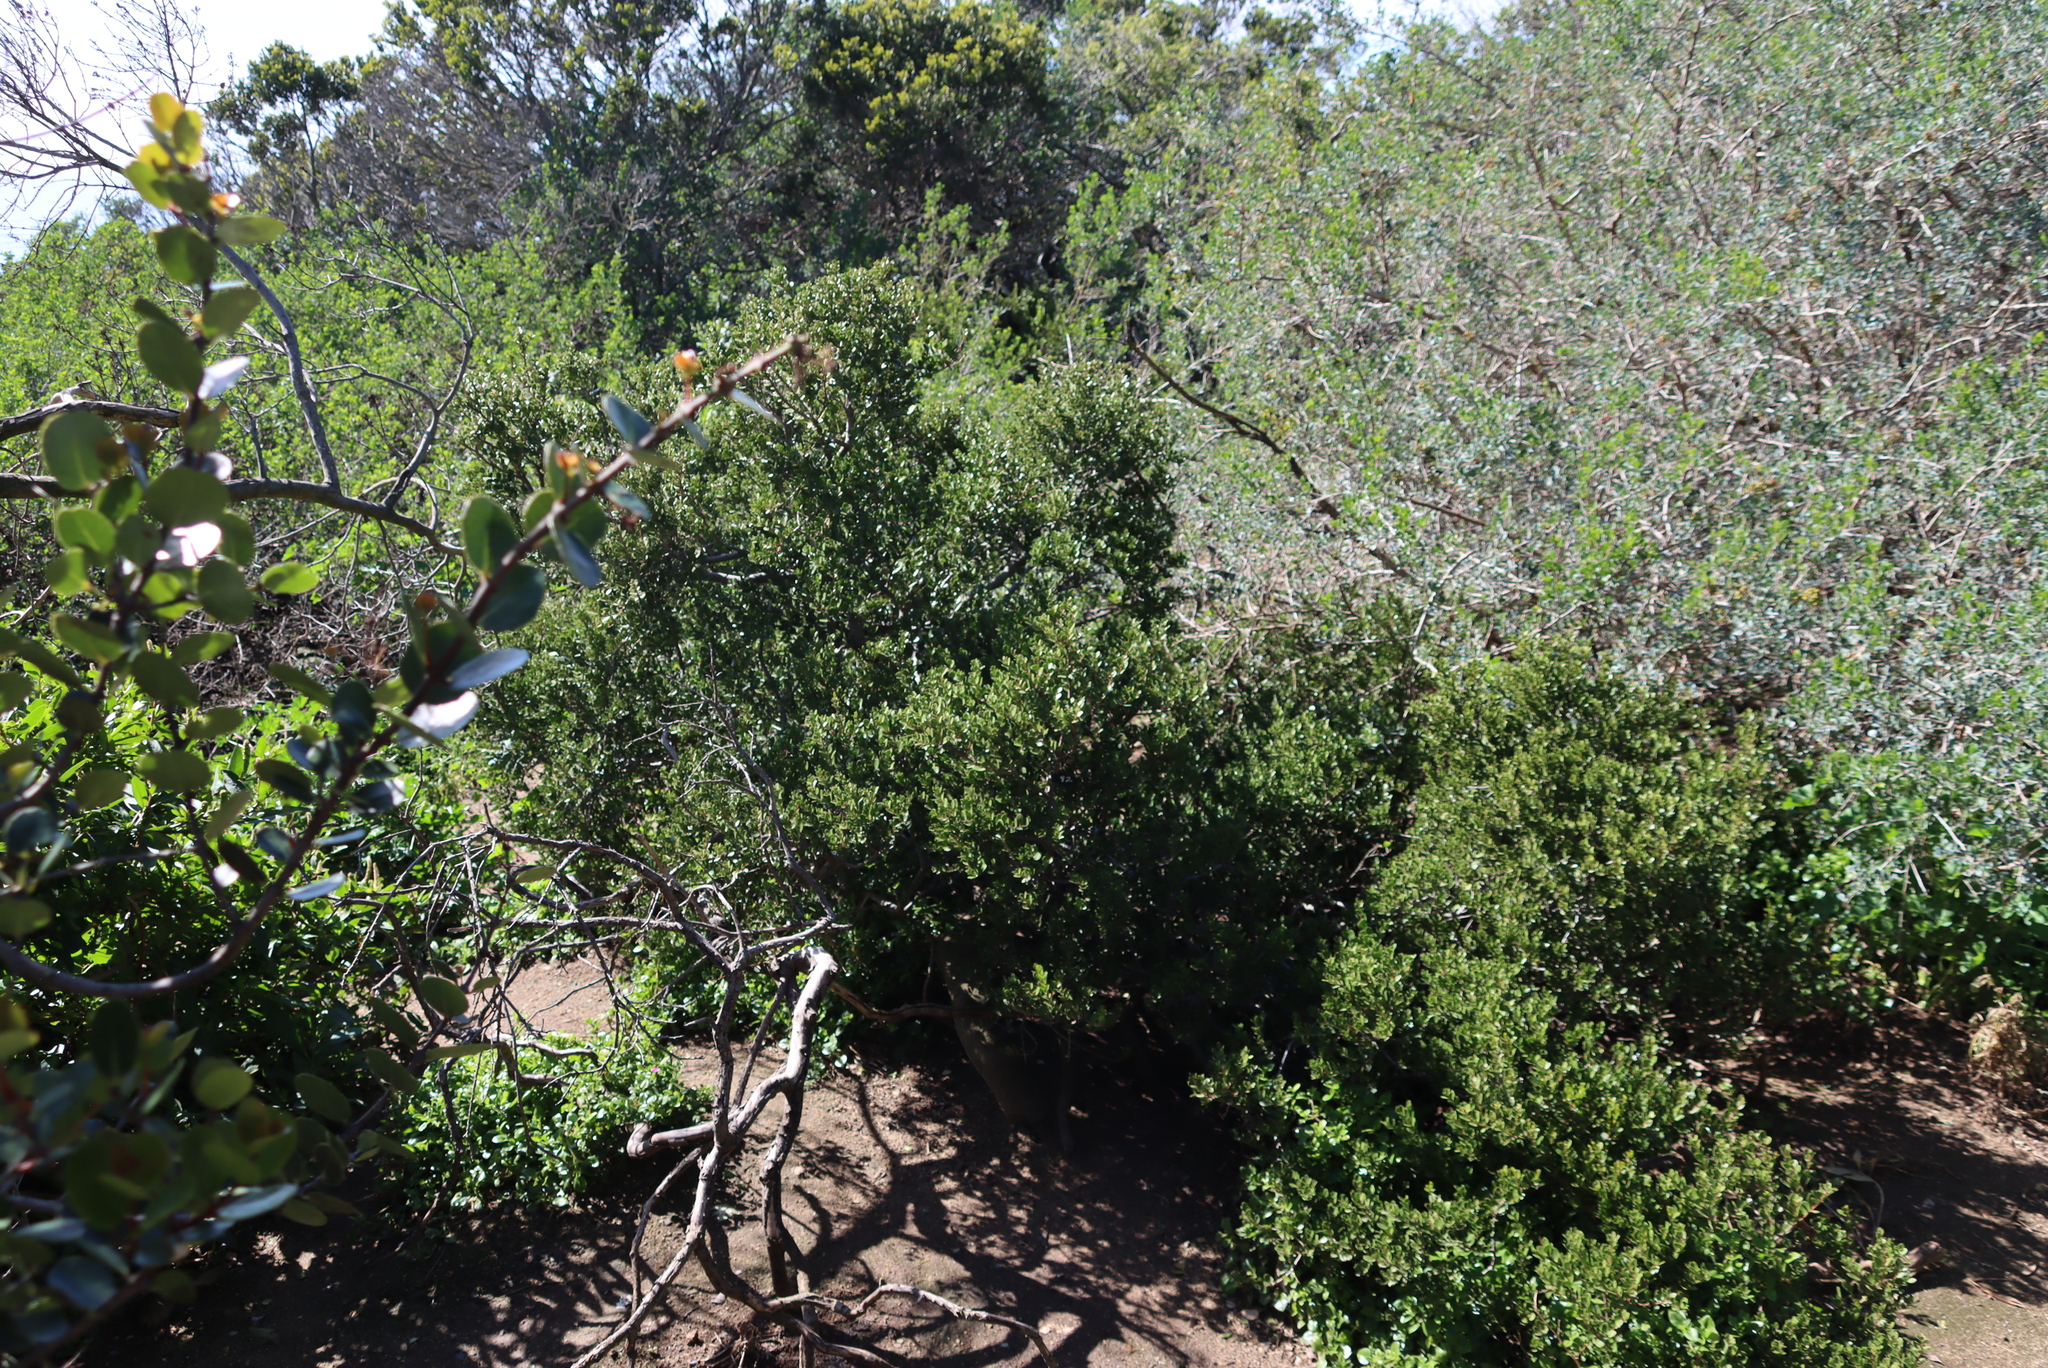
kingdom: Plantae
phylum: Tracheophyta
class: Magnoliopsida
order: Ericales
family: Ebenaceae
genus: Euclea
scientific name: Euclea racemosa
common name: Dune guarri
